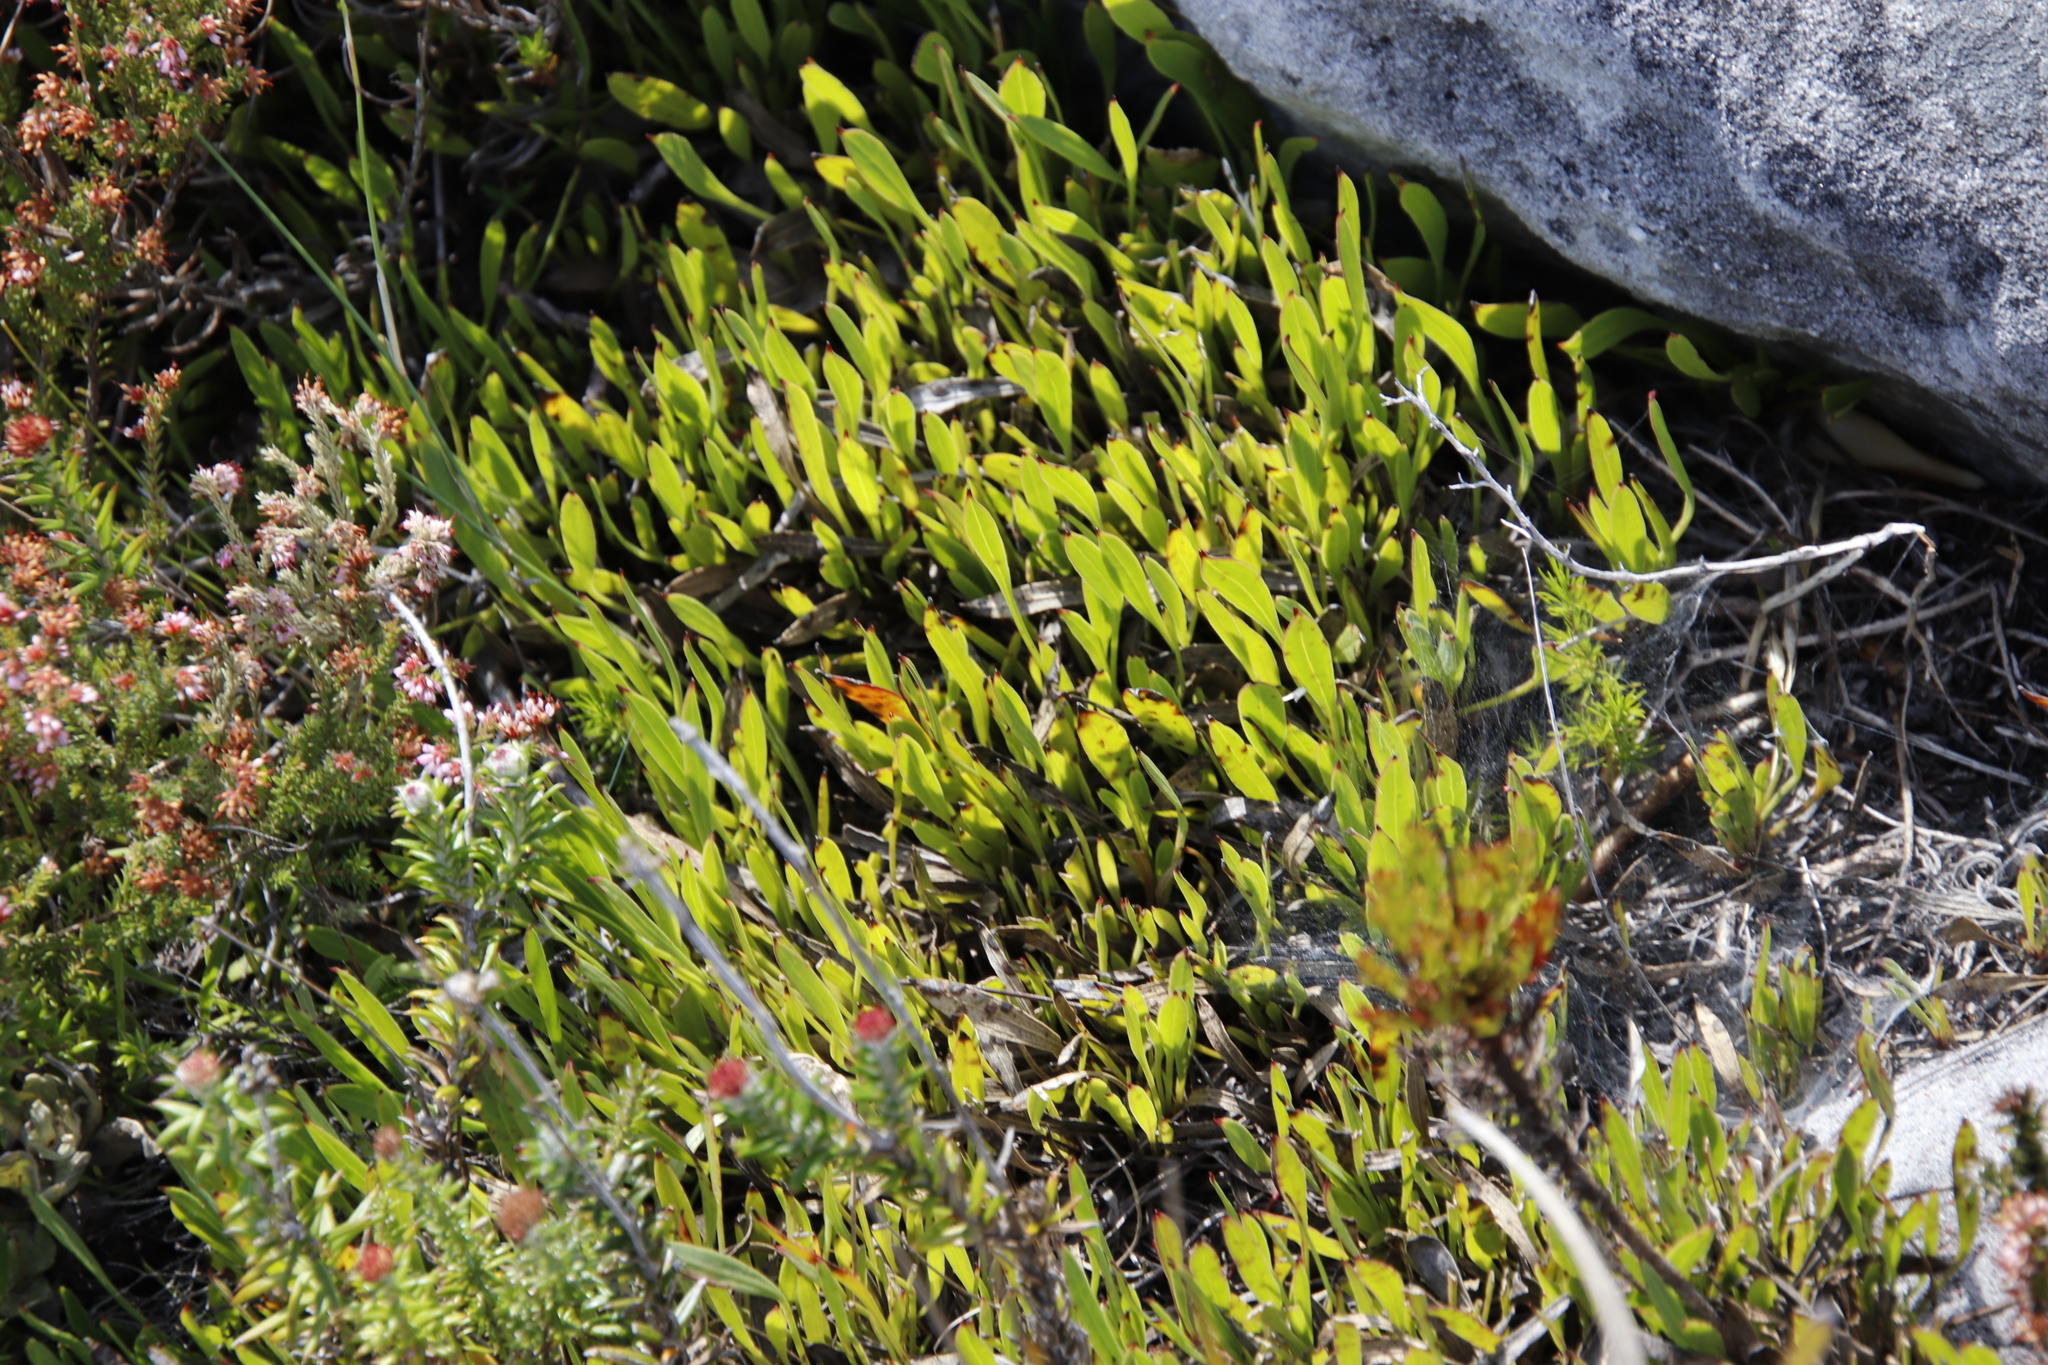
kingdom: Plantae
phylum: Tracheophyta
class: Magnoliopsida
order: Apiales
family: Apiaceae
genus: Centella
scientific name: Centella glabrata
